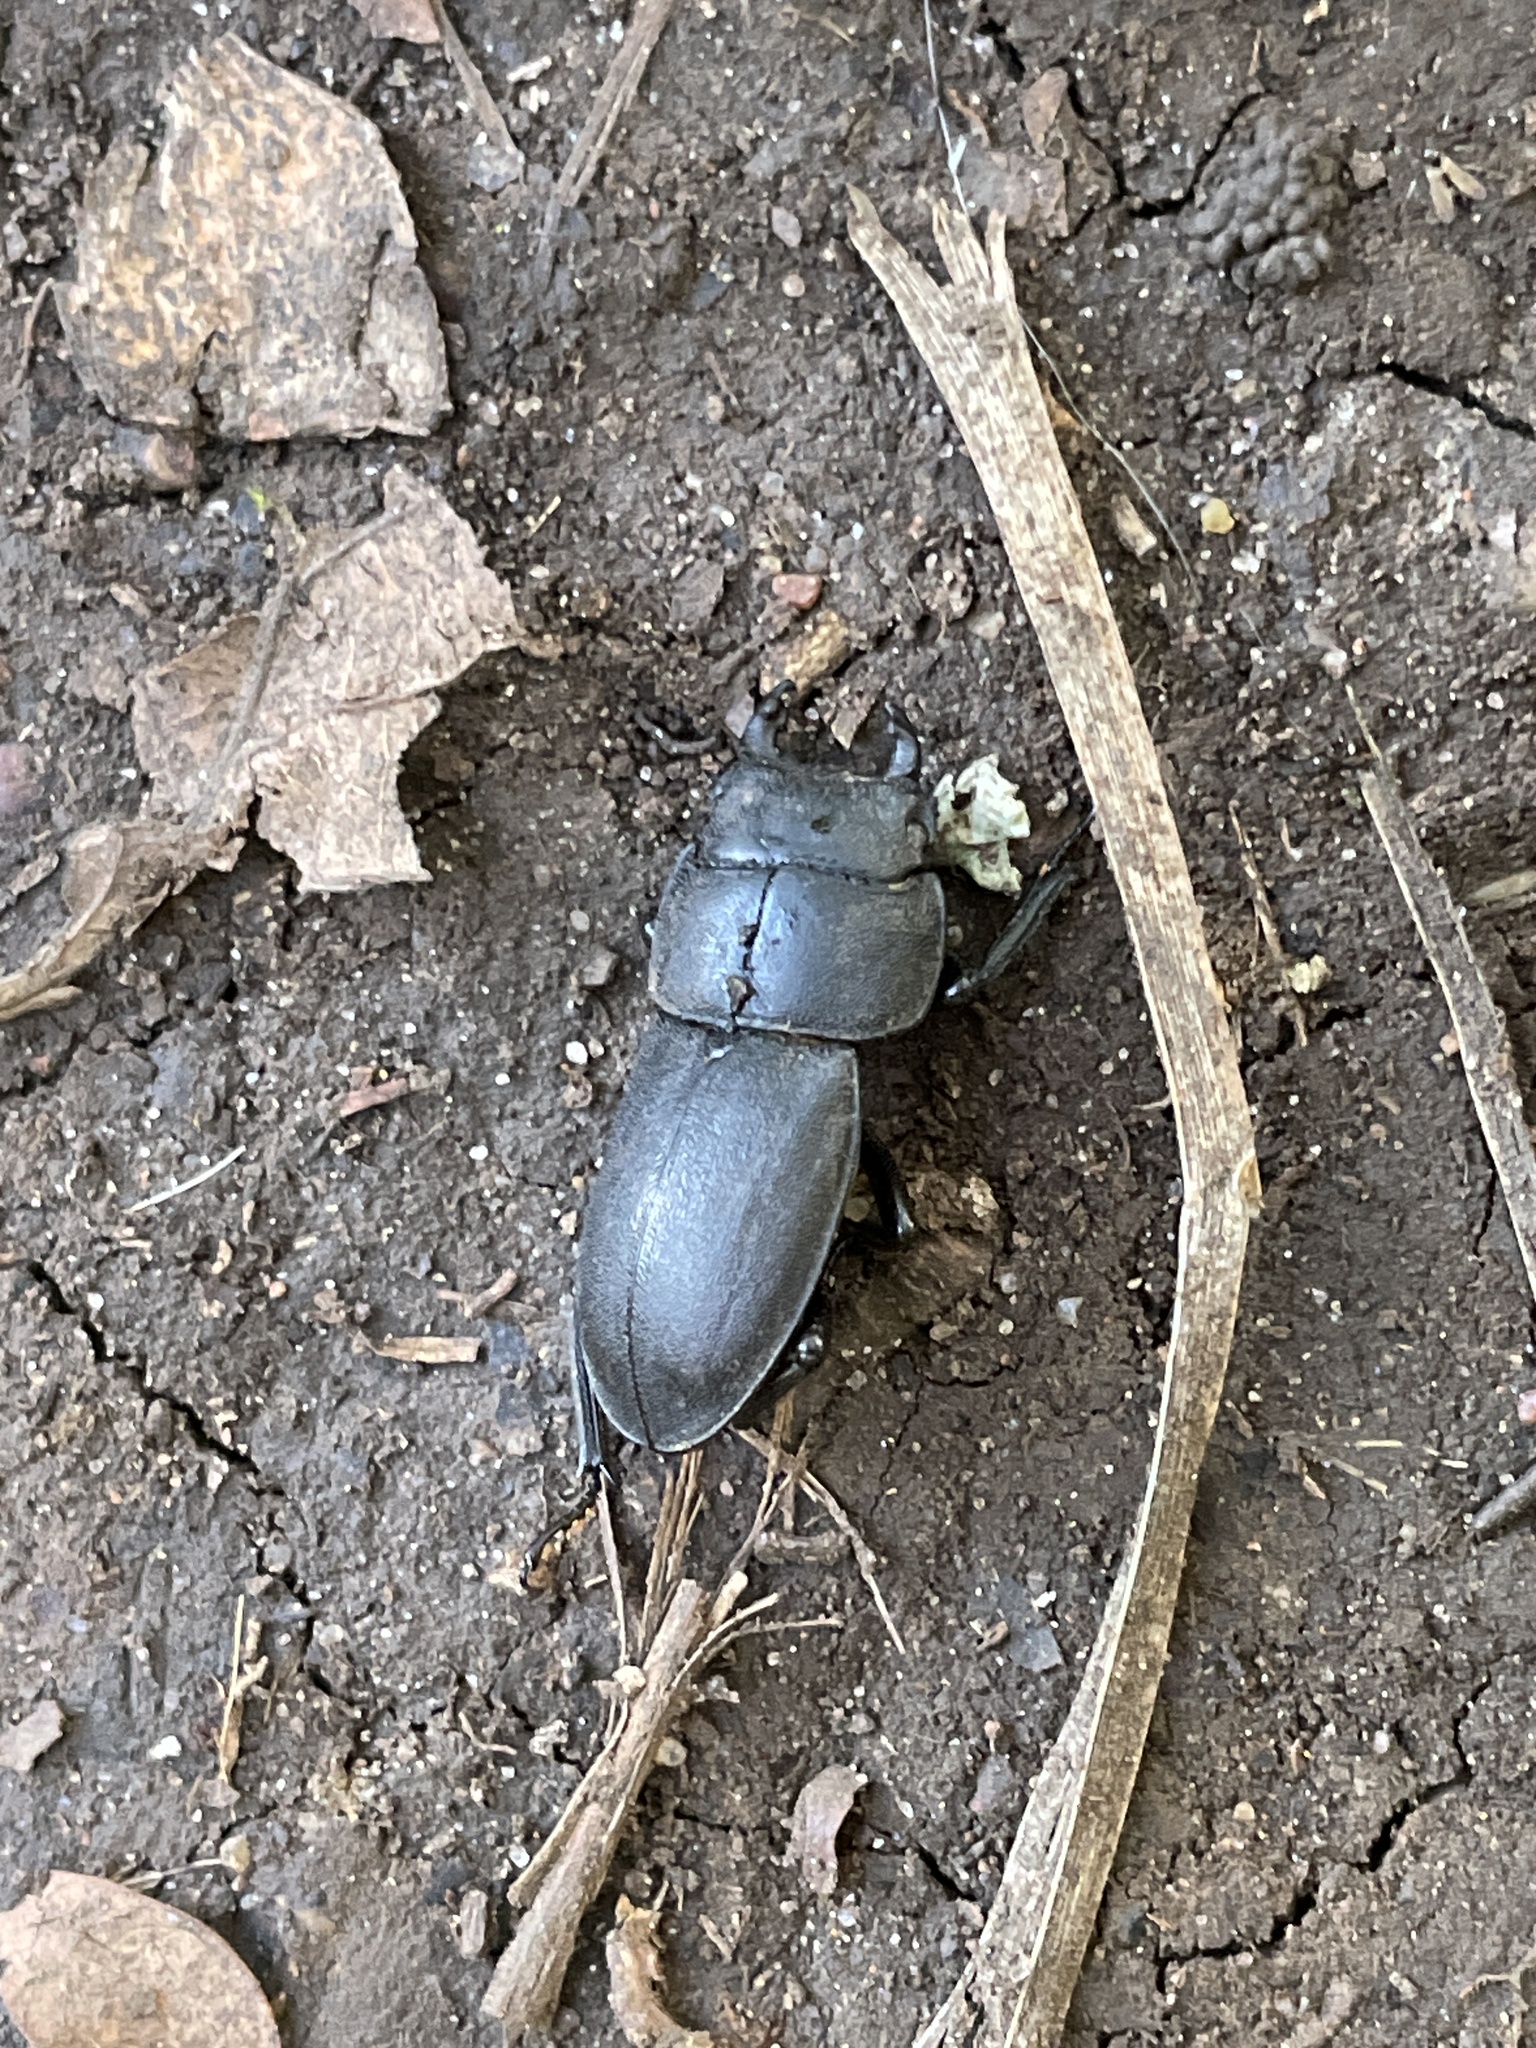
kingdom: Animalia
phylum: Arthropoda
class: Insecta
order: Coleoptera
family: Lucanidae
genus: Dorcus
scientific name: Dorcus parallelipipedus
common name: Lesser stag beetle
